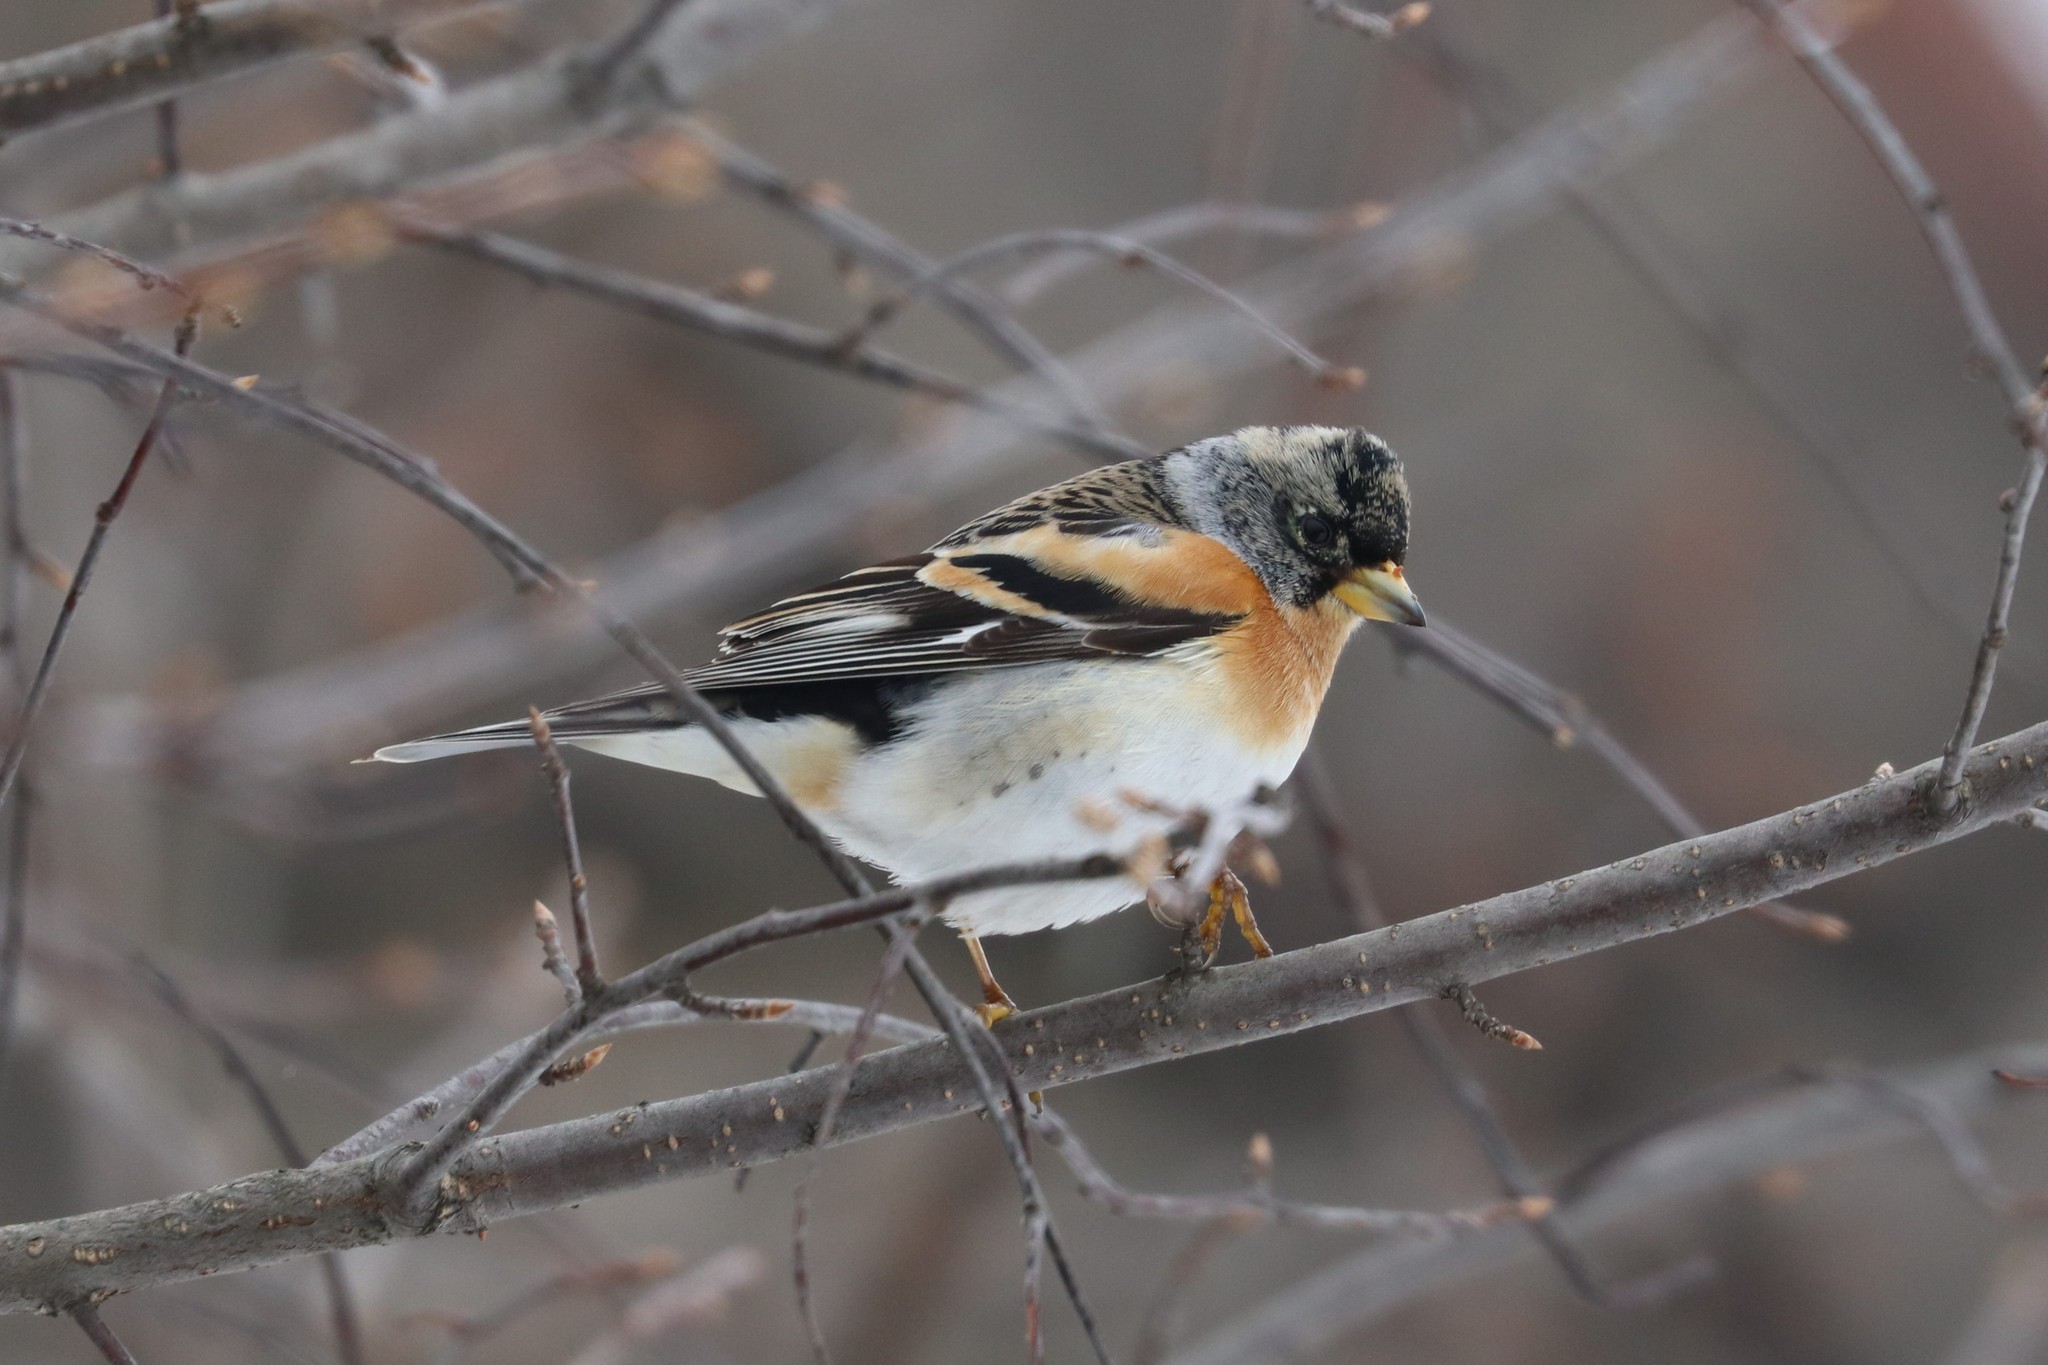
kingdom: Animalia
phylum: Chordata
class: Aves
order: Passeriformes
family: Fringillidae
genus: Fringilla
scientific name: Fringilla montifringilla
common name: Brambling
